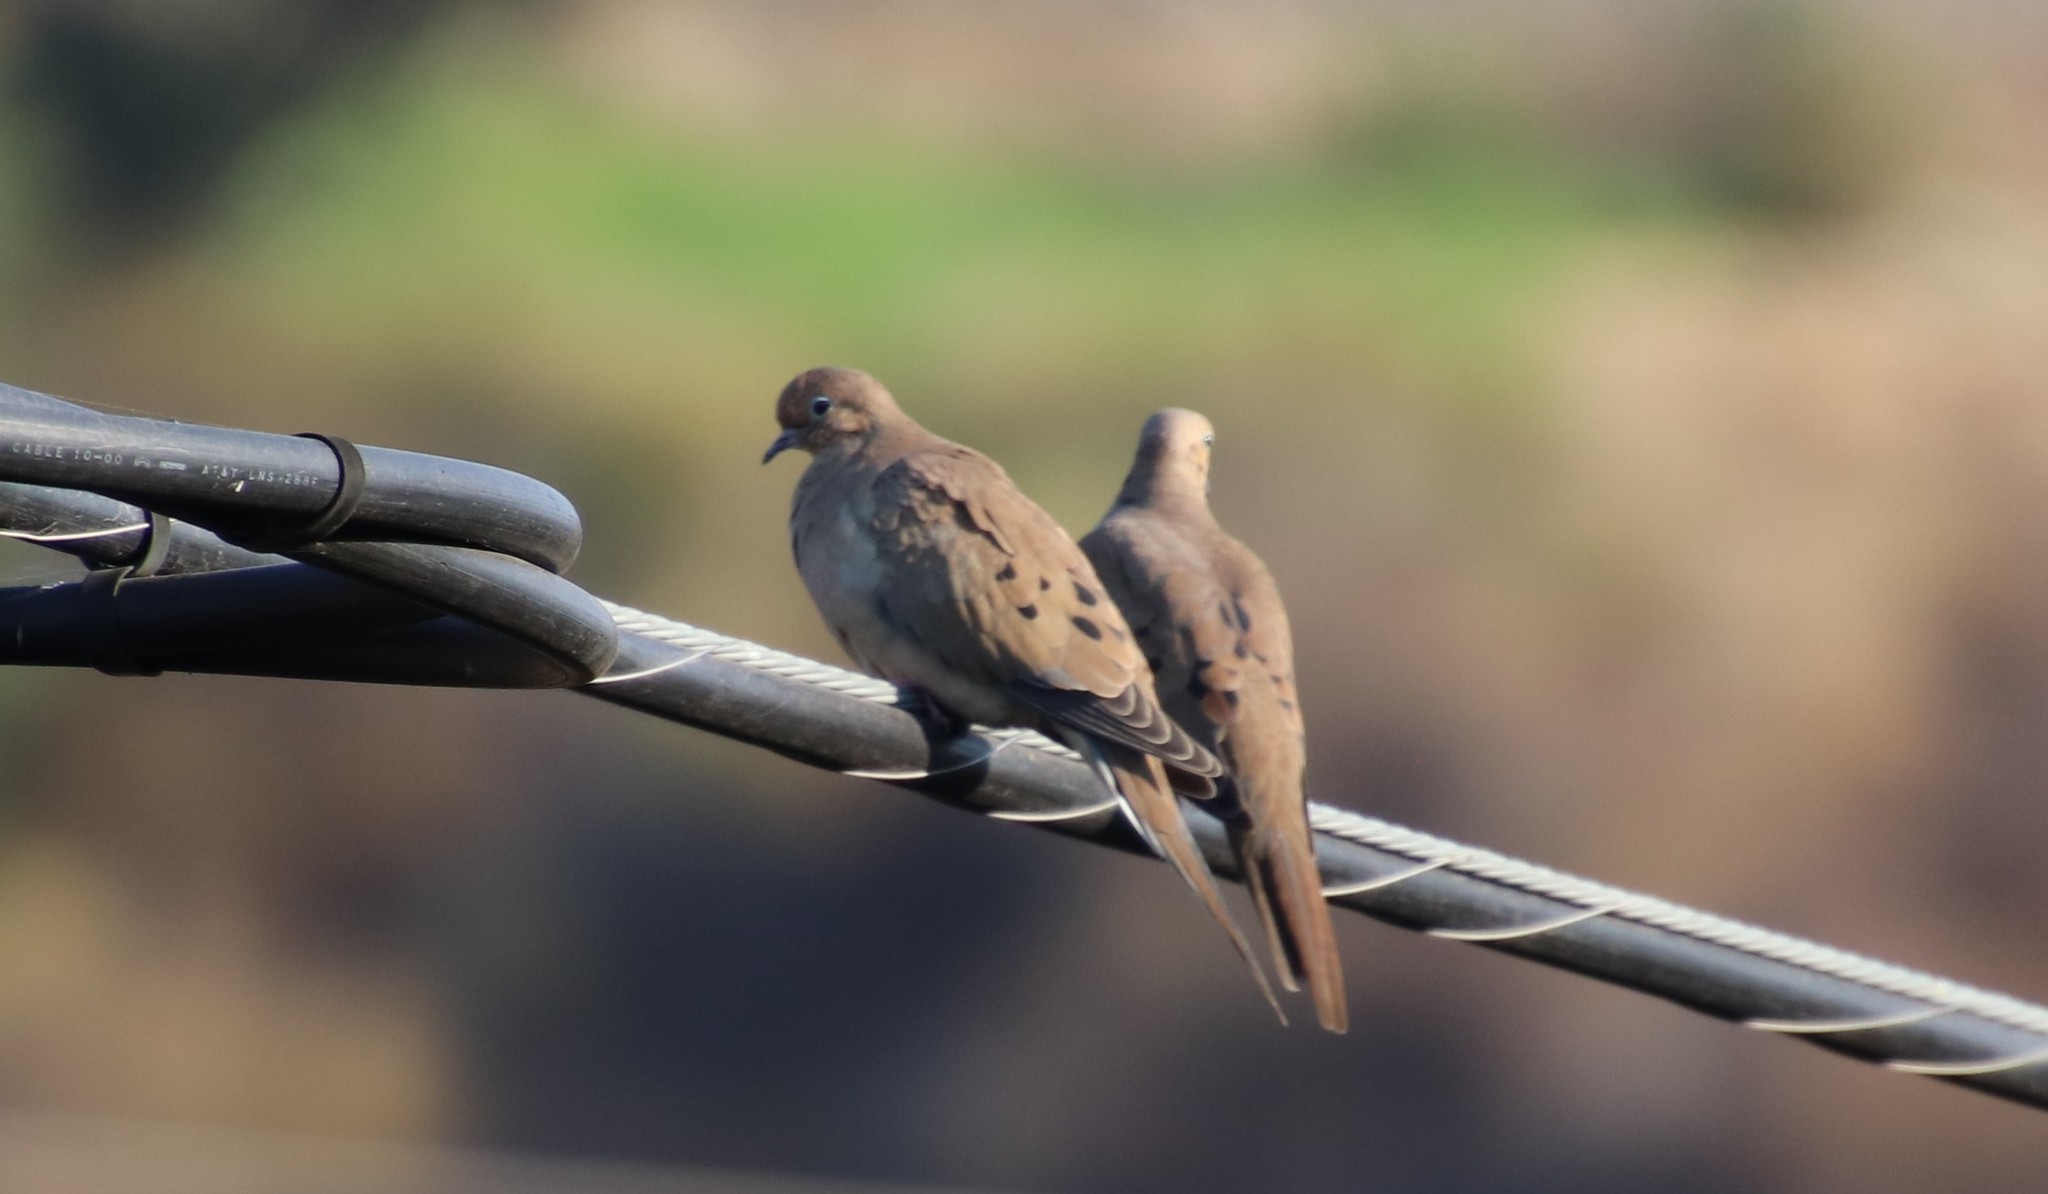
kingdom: Animalia
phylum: Chordata
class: Aves
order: Columbiformes
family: Columbidae
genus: Zenaida
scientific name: Zenaida macroura
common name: Mourning dove
